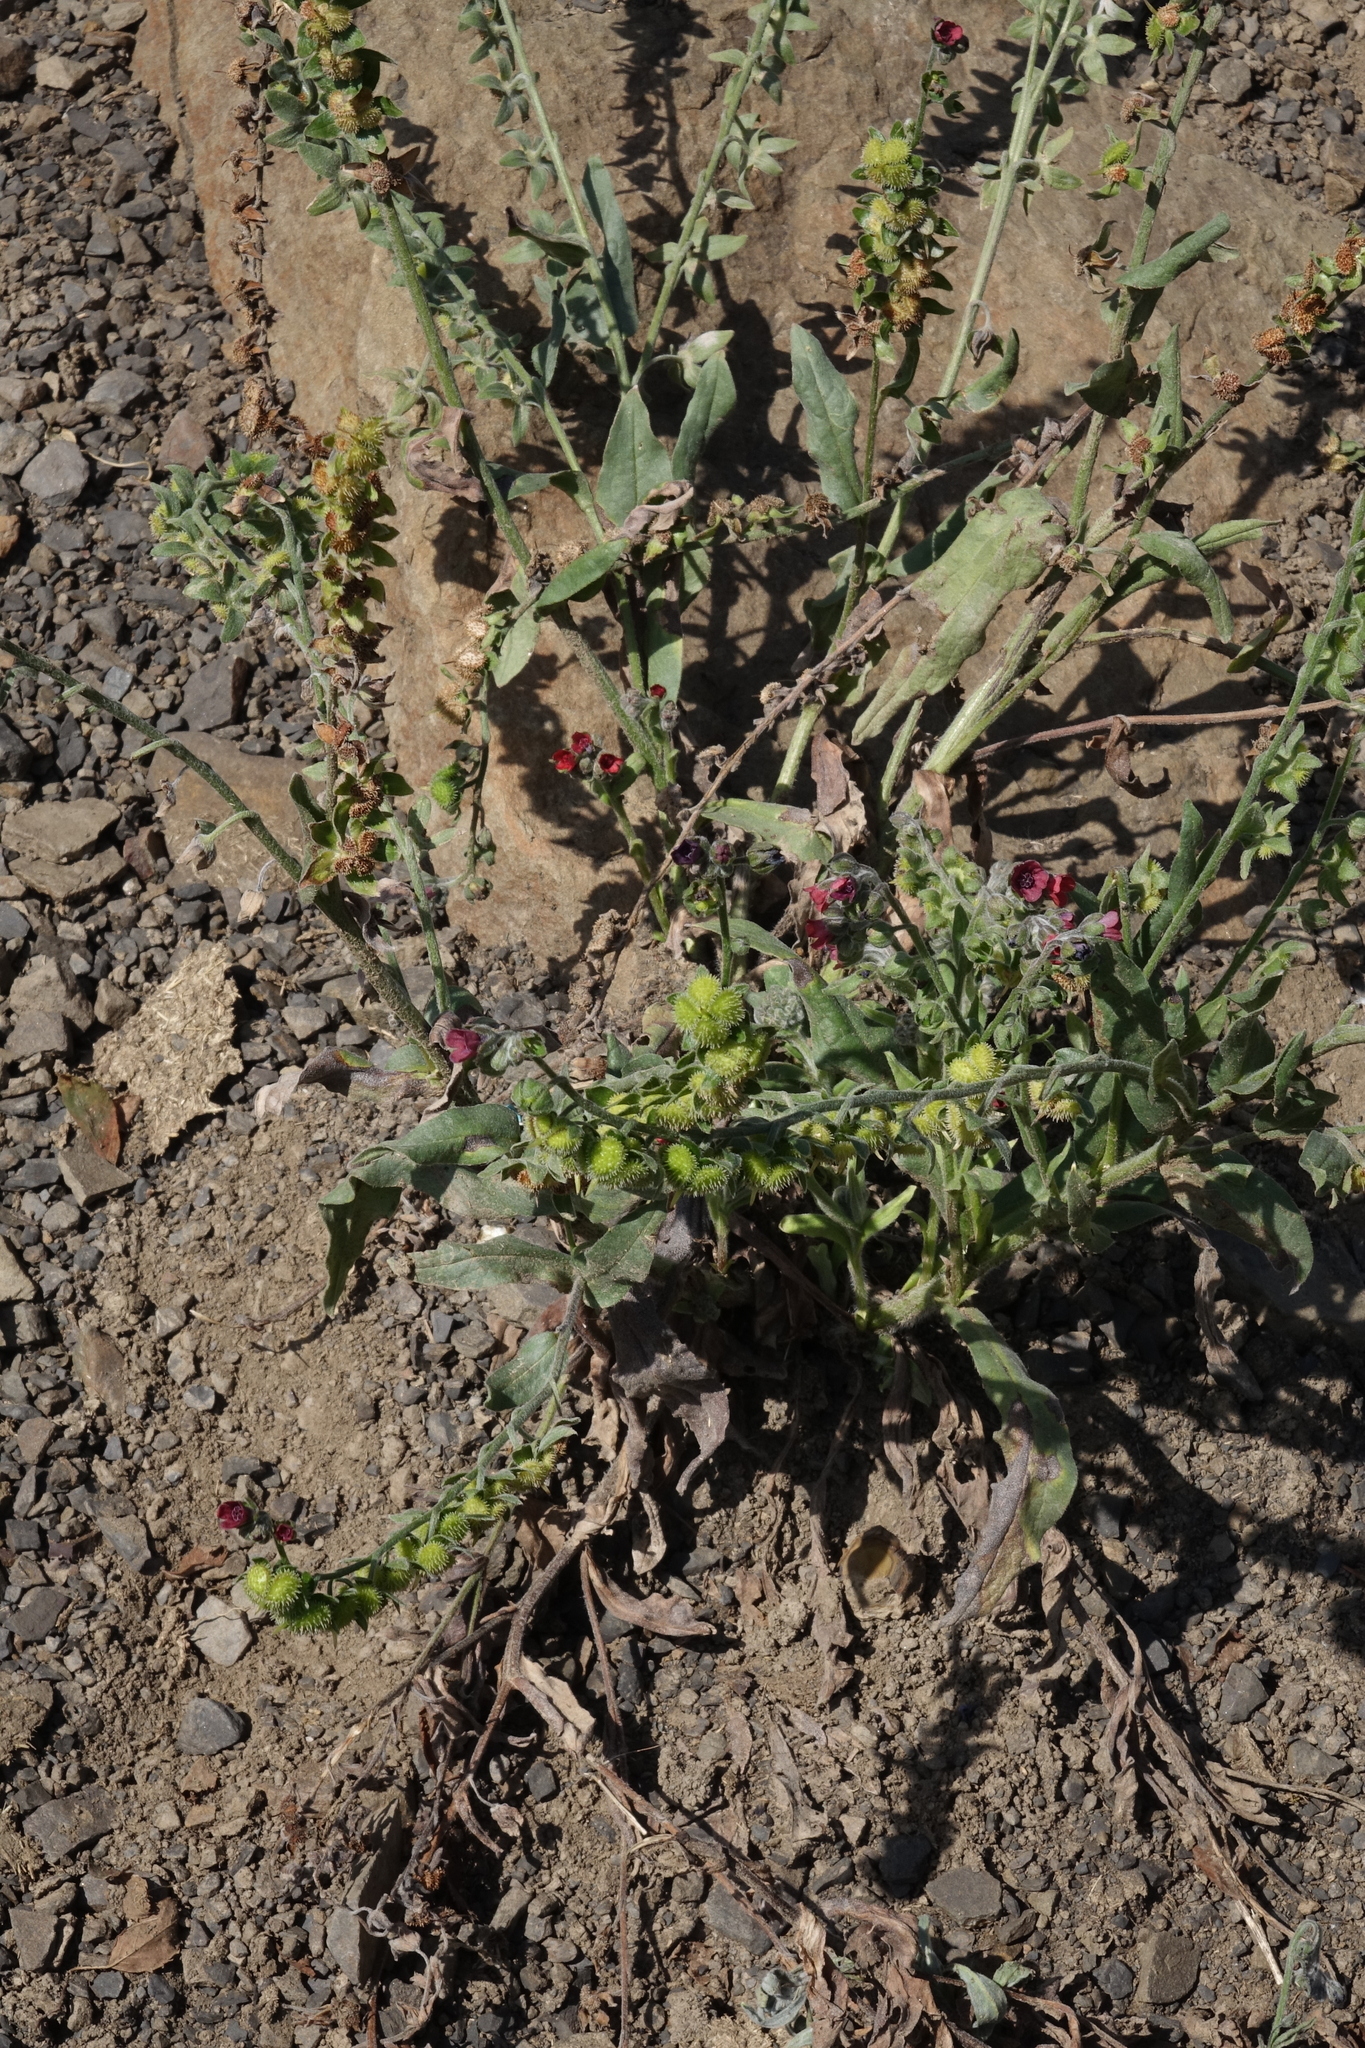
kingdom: Plantae
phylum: Tracheophyta
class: Magnoliopsida
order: Boraginales
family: Boraginaceae
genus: Cynoglossum
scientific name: Cynoglossum officinale
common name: Hound's-tongue
